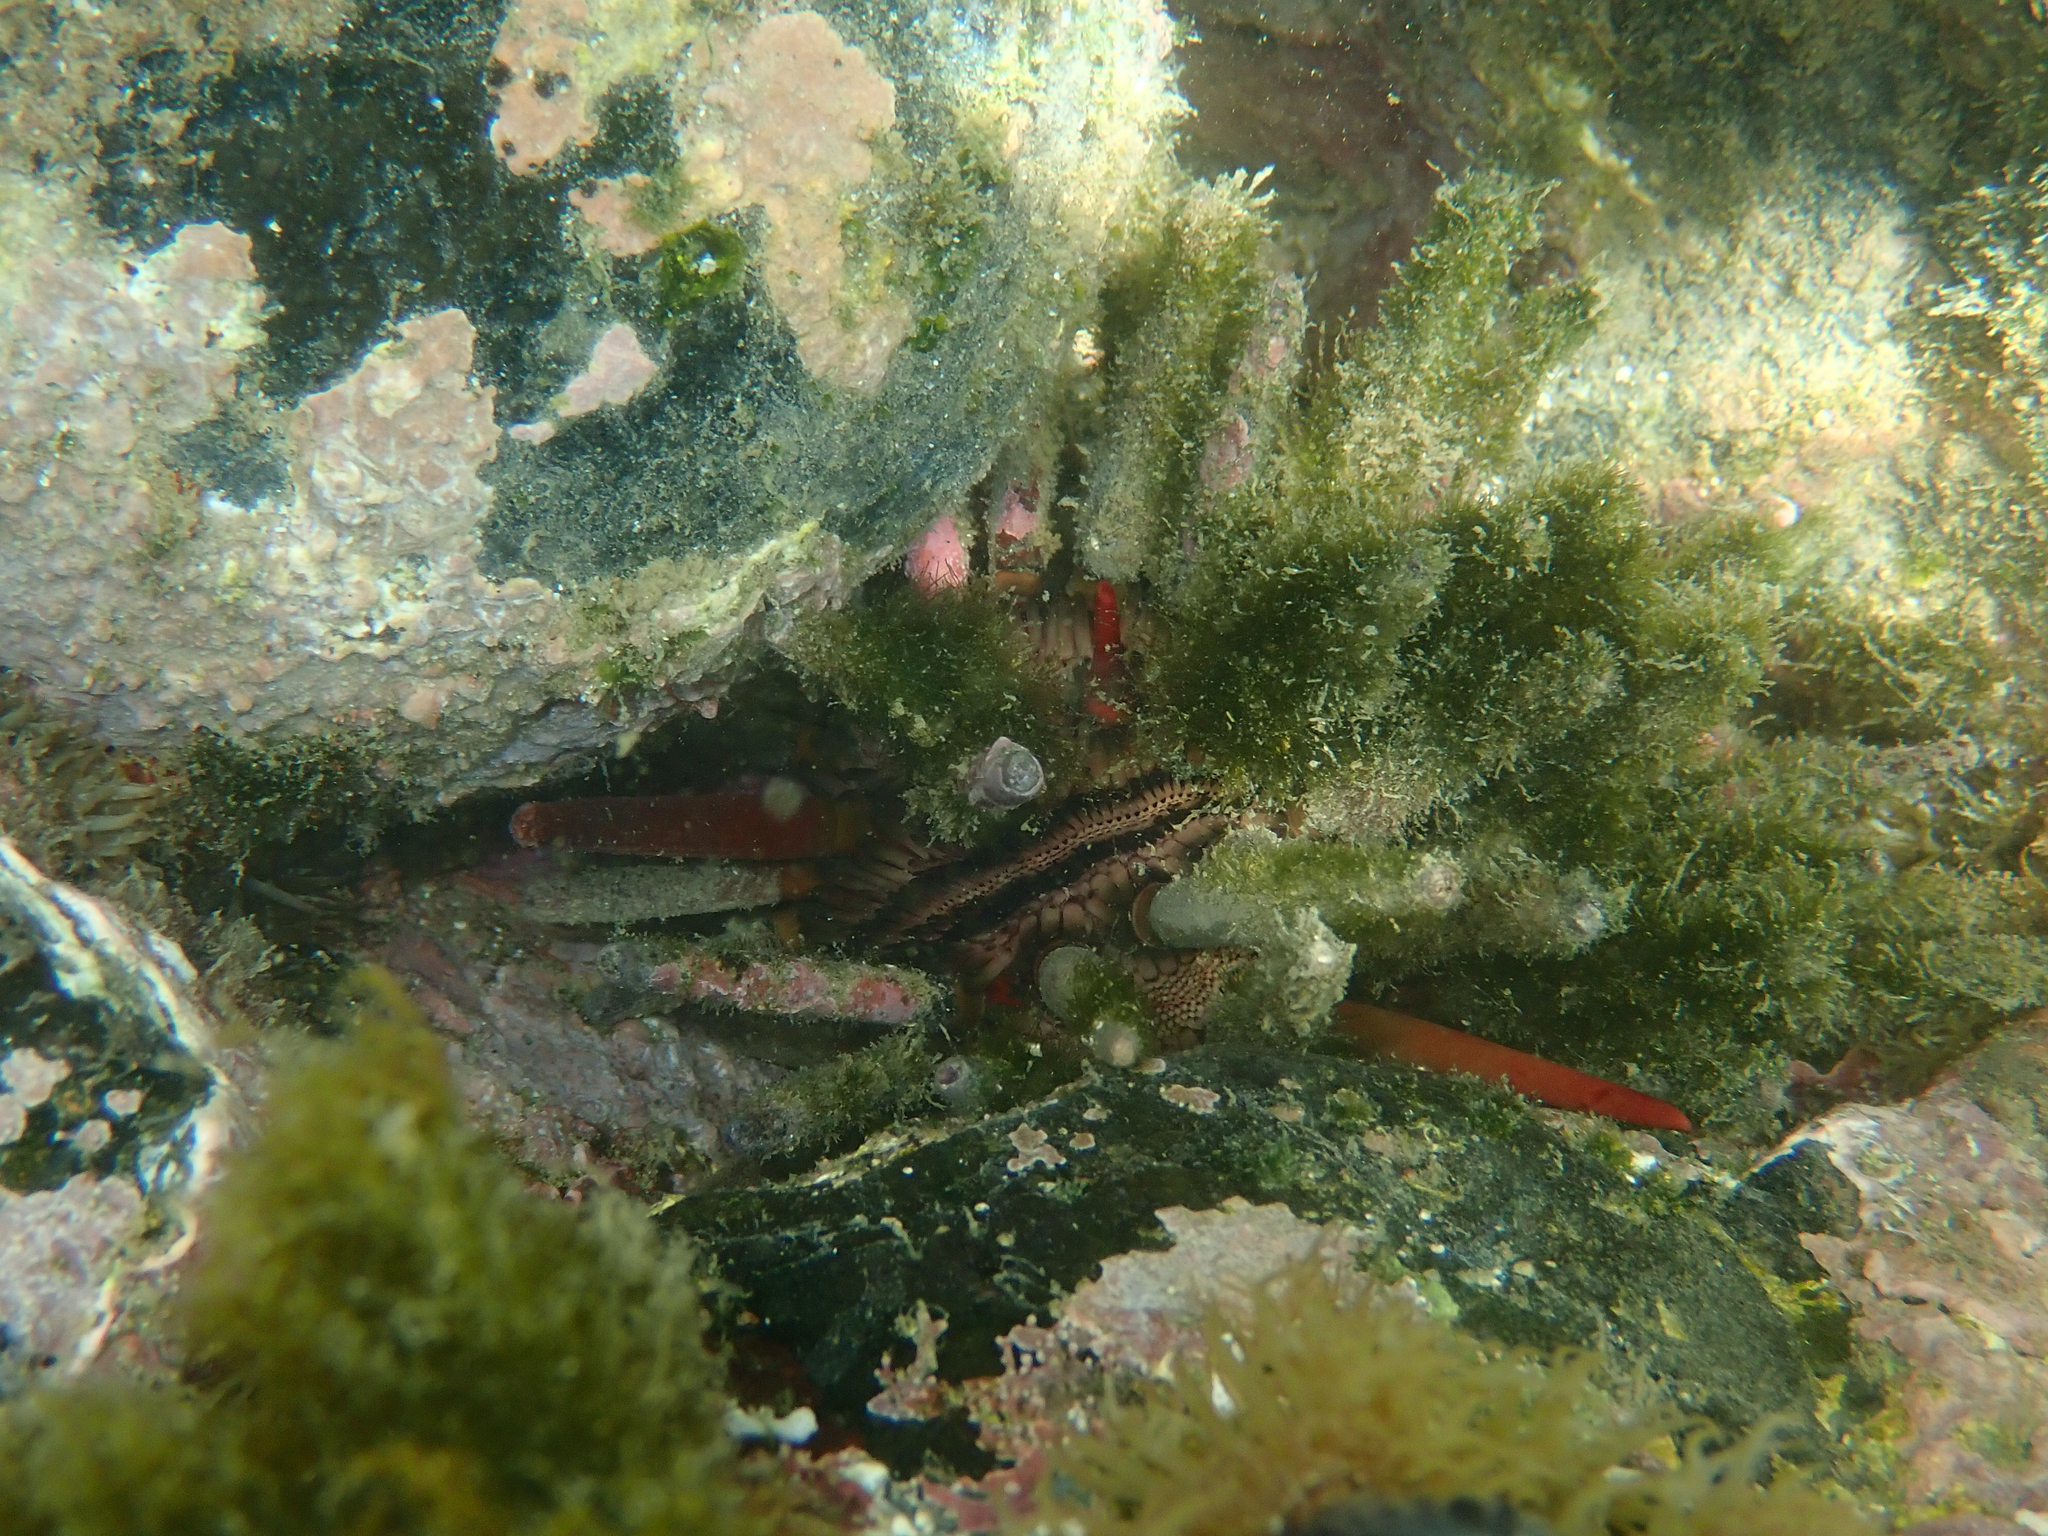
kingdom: Animalia
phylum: Echinodermata
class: Echinoidea
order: Cidaroida
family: Cidaridae
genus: Eucidaris
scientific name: Eucidaris tribuloides
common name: Slate pencil urchin
